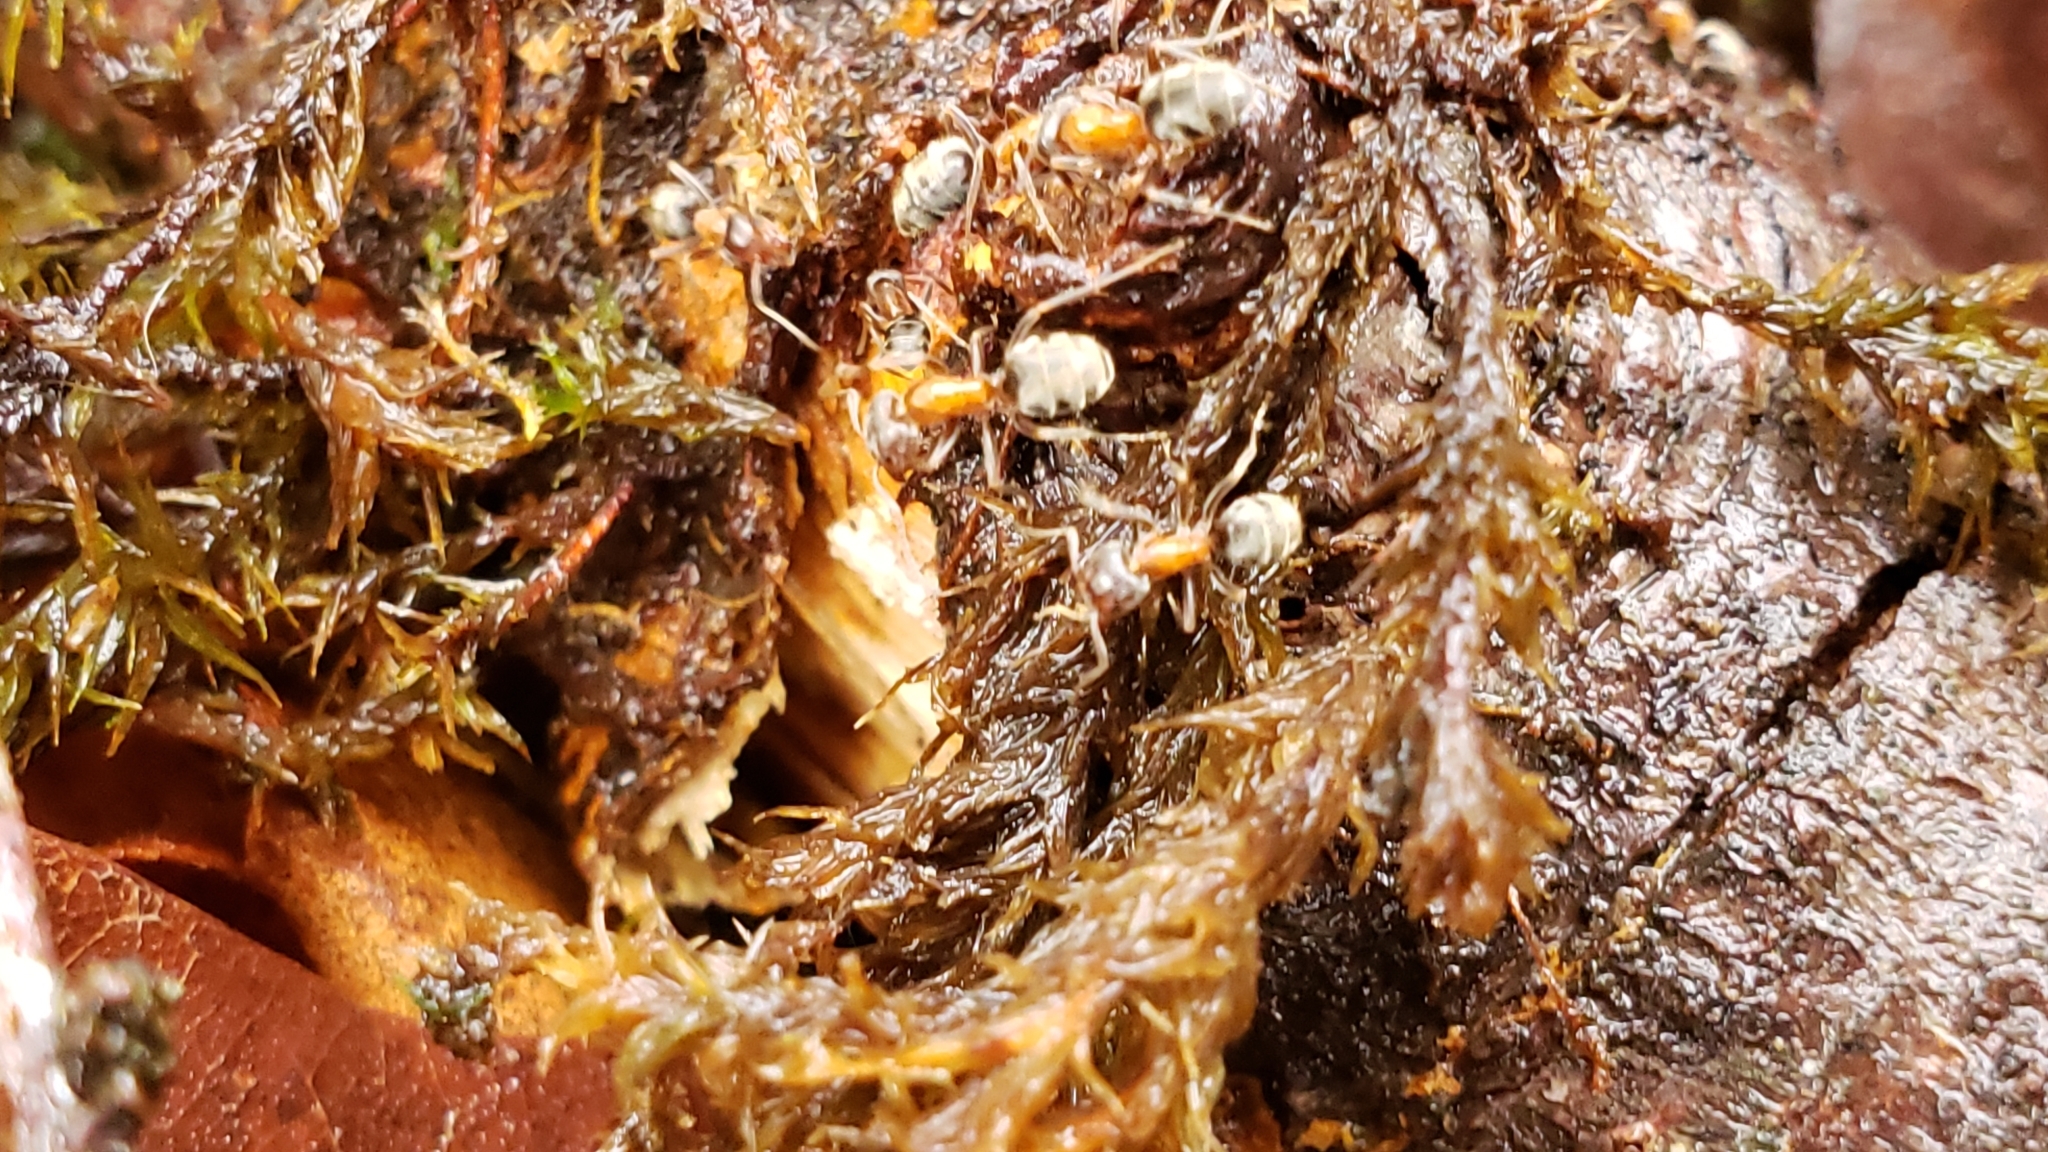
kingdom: Animalia
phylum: Arthropoda
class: Insecta
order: Hymenoptera
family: Formicidae
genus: Liometopum
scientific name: Liometopum occidentale
